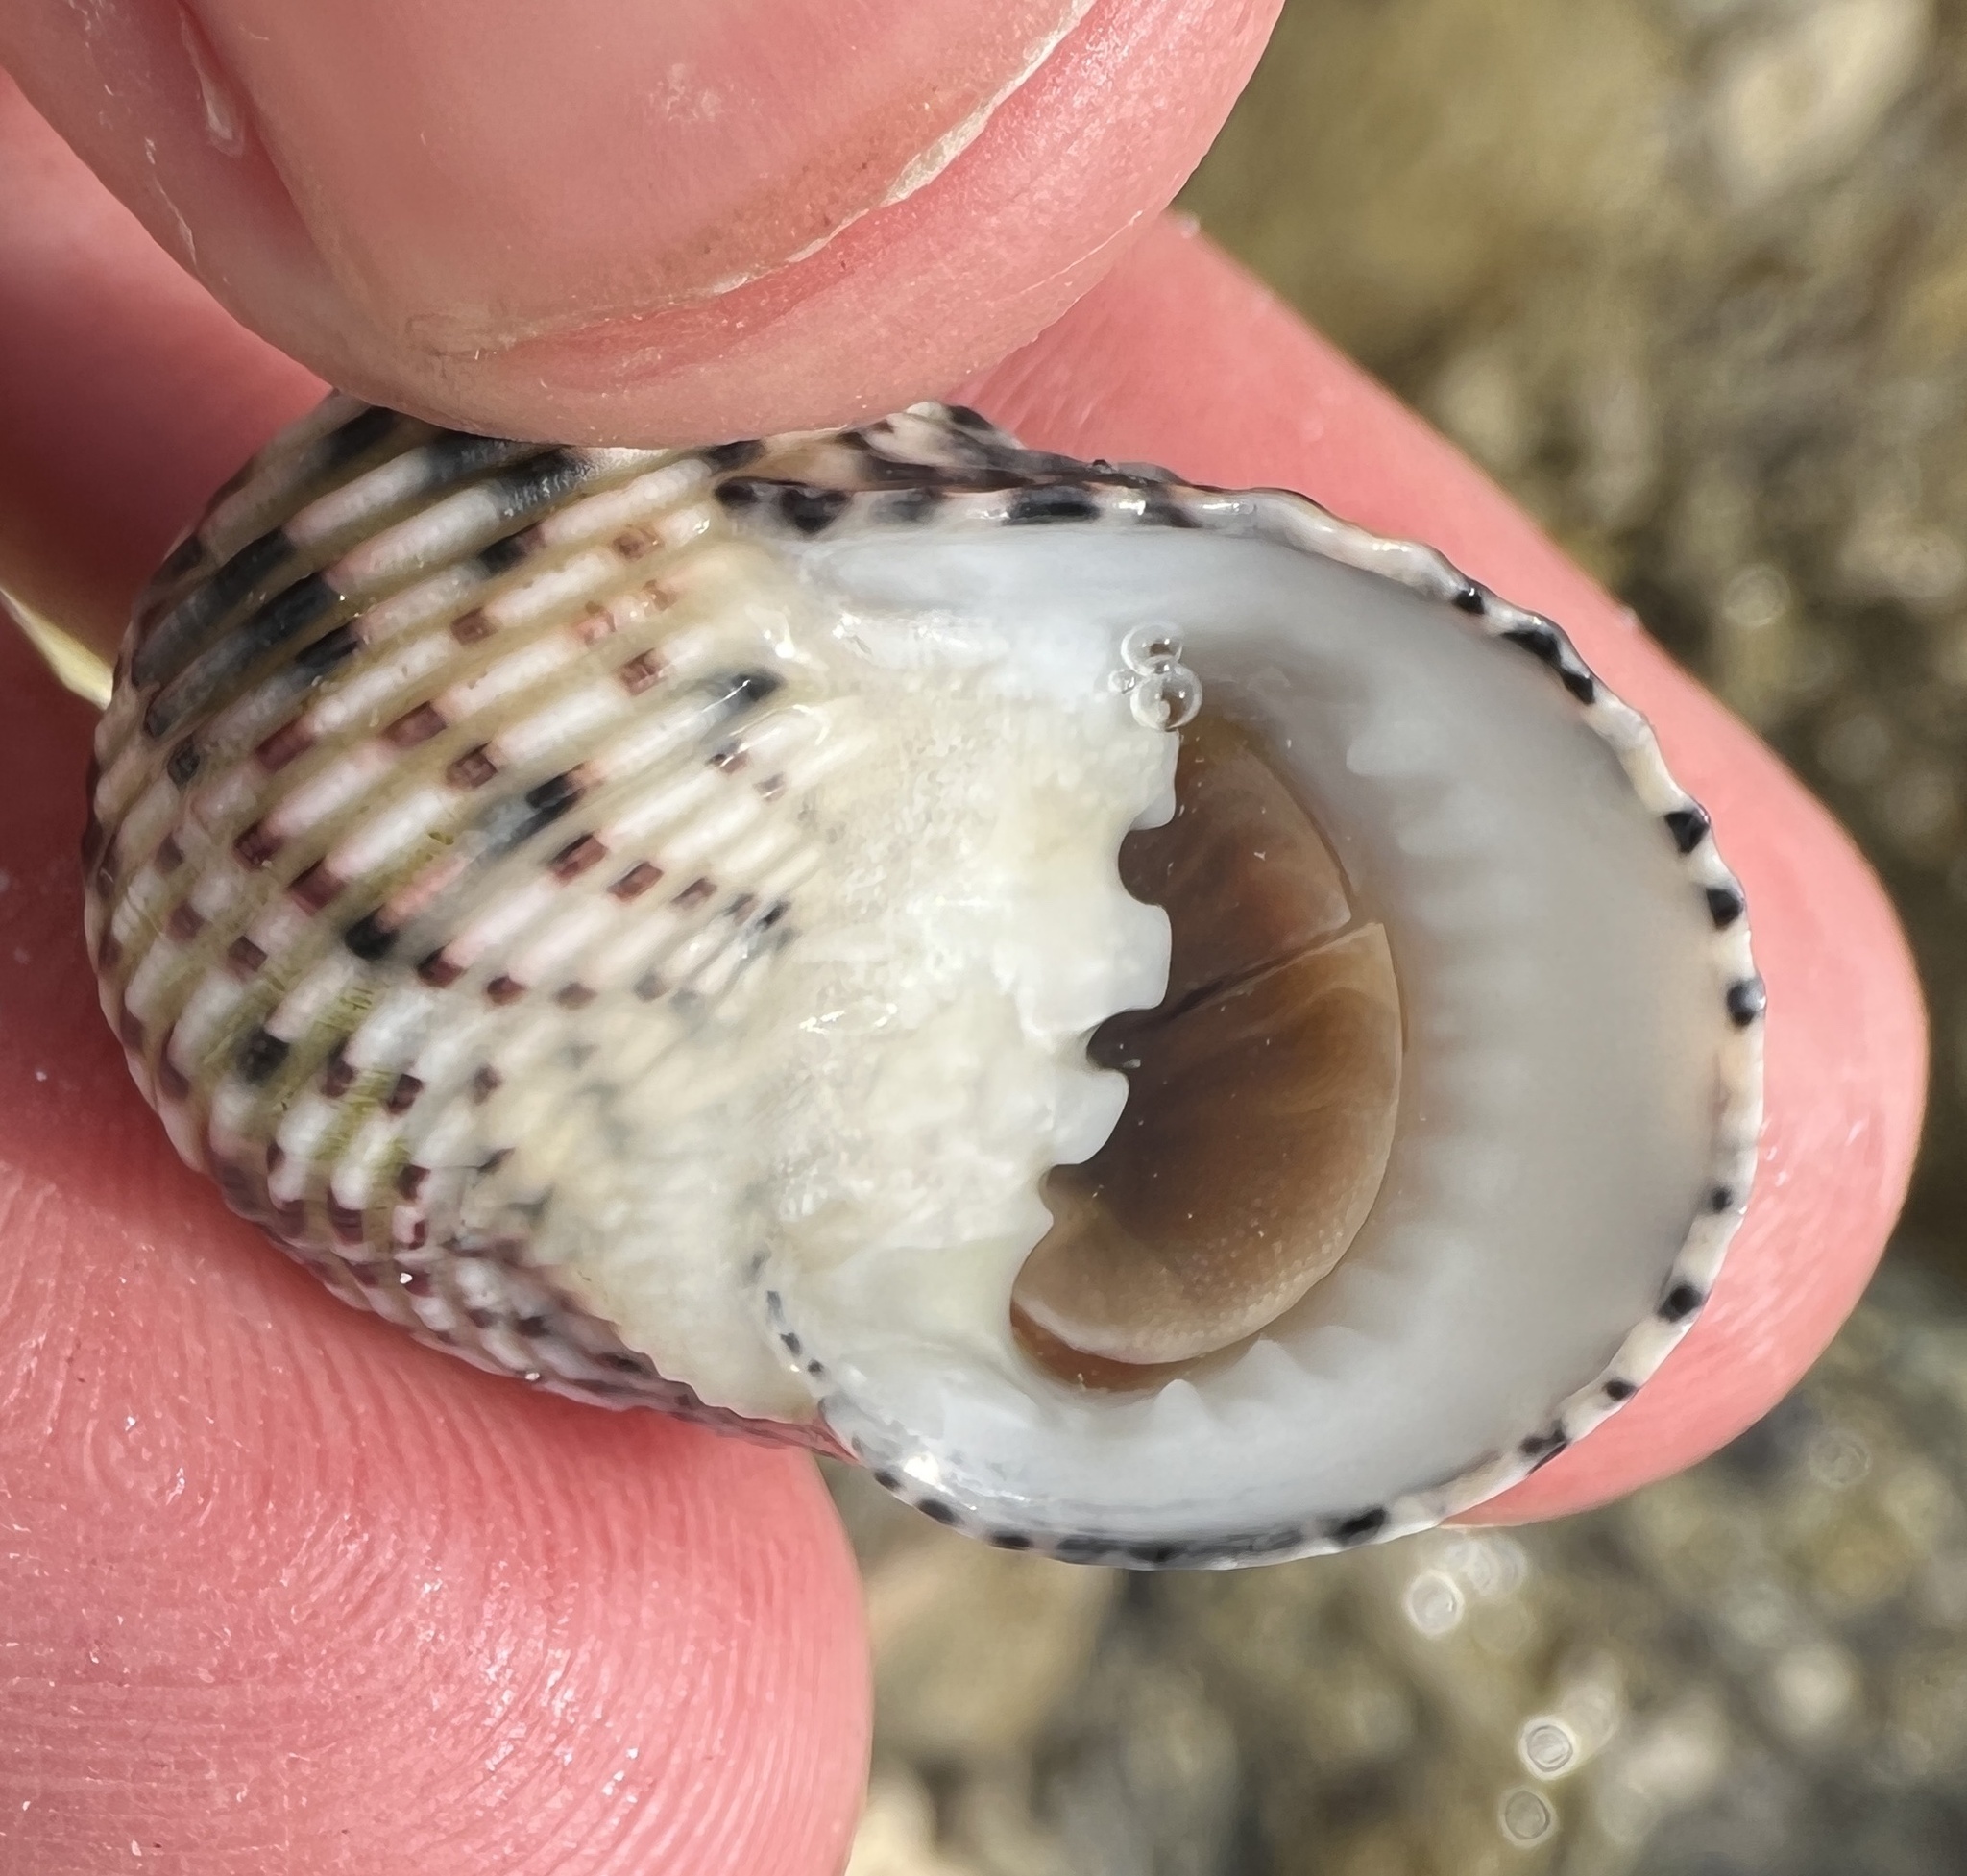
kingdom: Animalia
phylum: Mollusca
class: Gastropoda
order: Cycloneritida
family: Neritidae
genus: Nerita
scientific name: Nerita versicolor
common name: Four-tooth nerite
